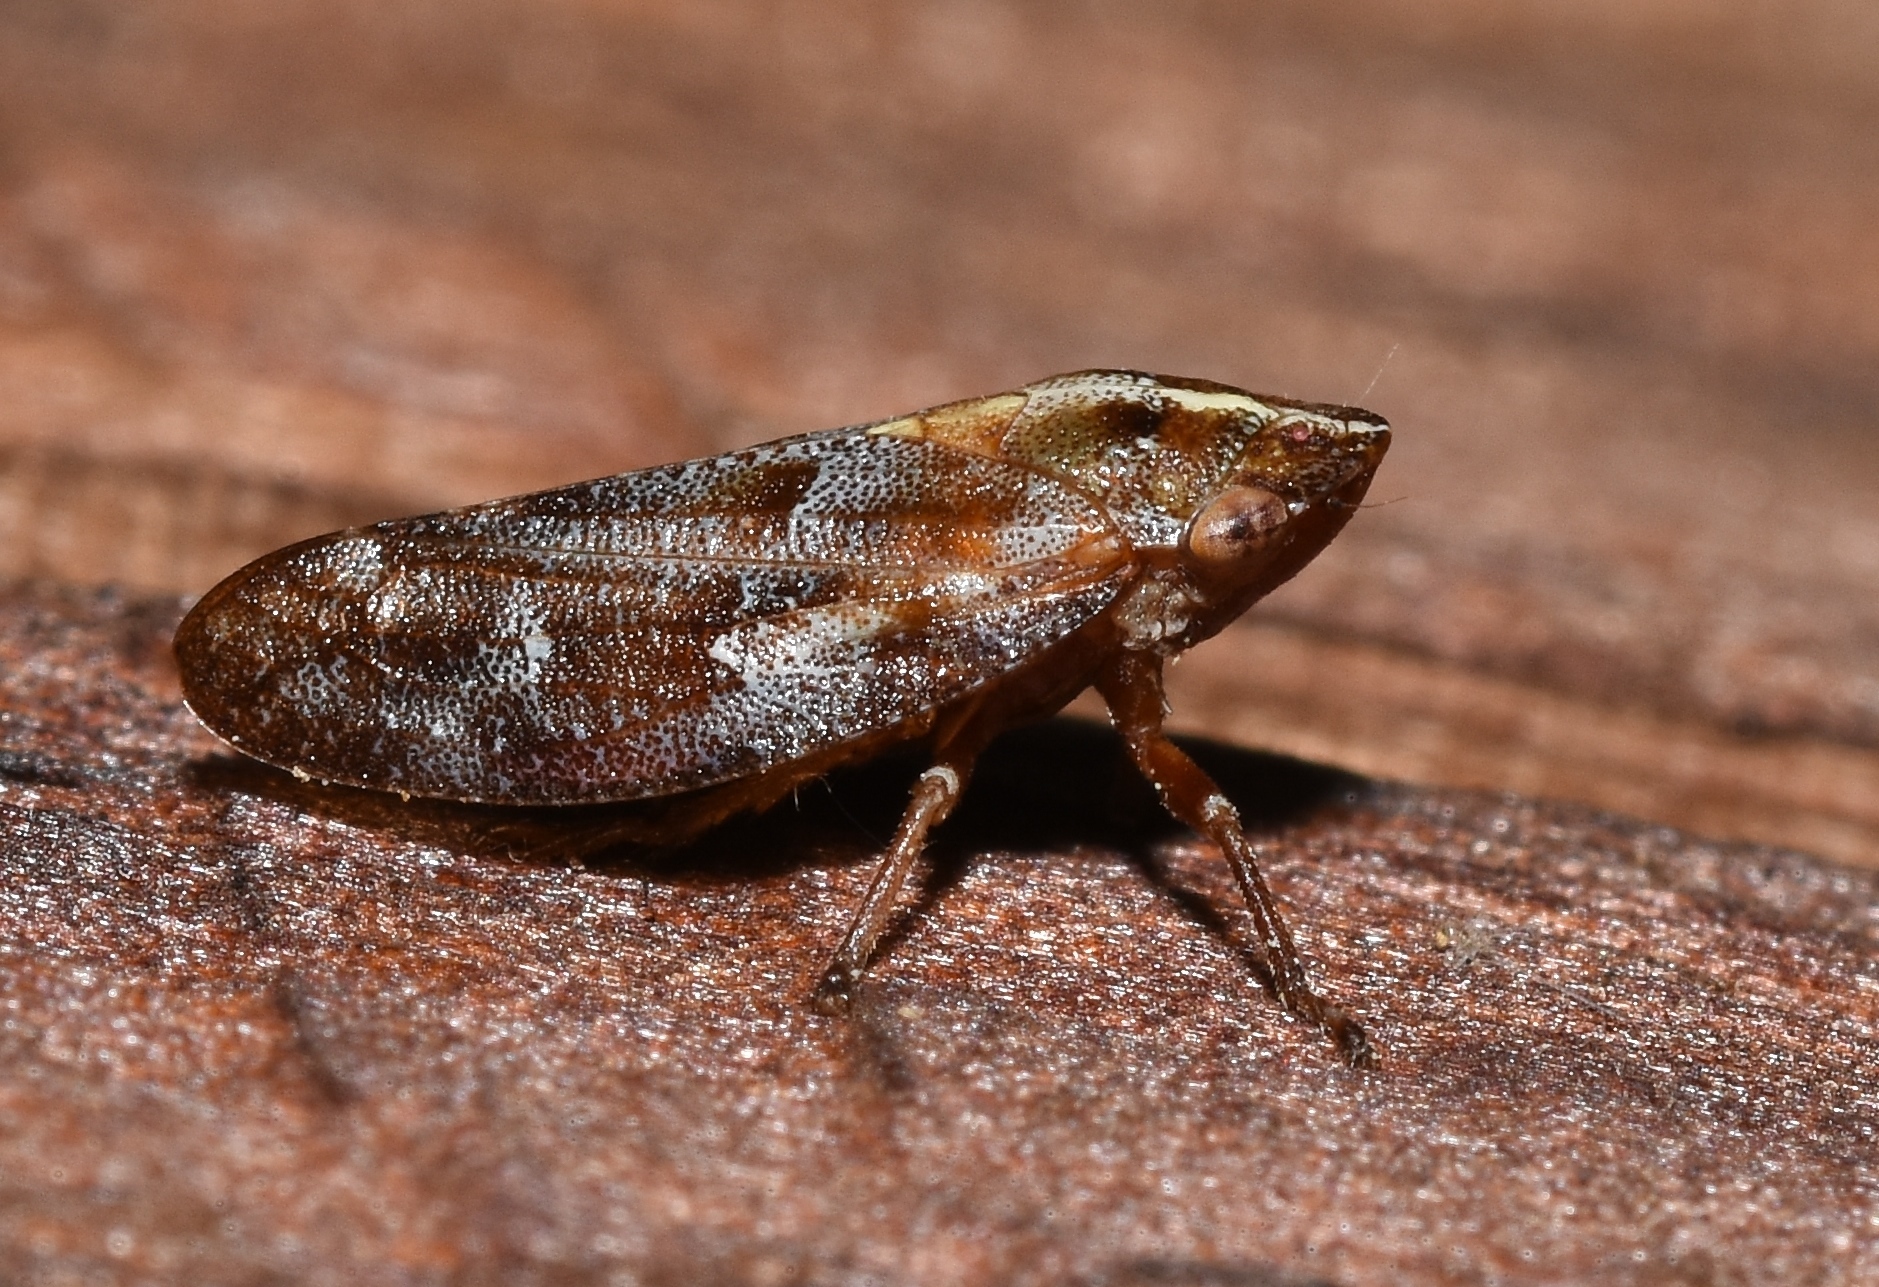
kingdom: Animalia
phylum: Arthropoda
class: Insecta
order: Hemiptera
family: Aphrophoridae
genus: Aphrophora
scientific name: Aphrophora saratogensis
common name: Saratoga spittlebug
